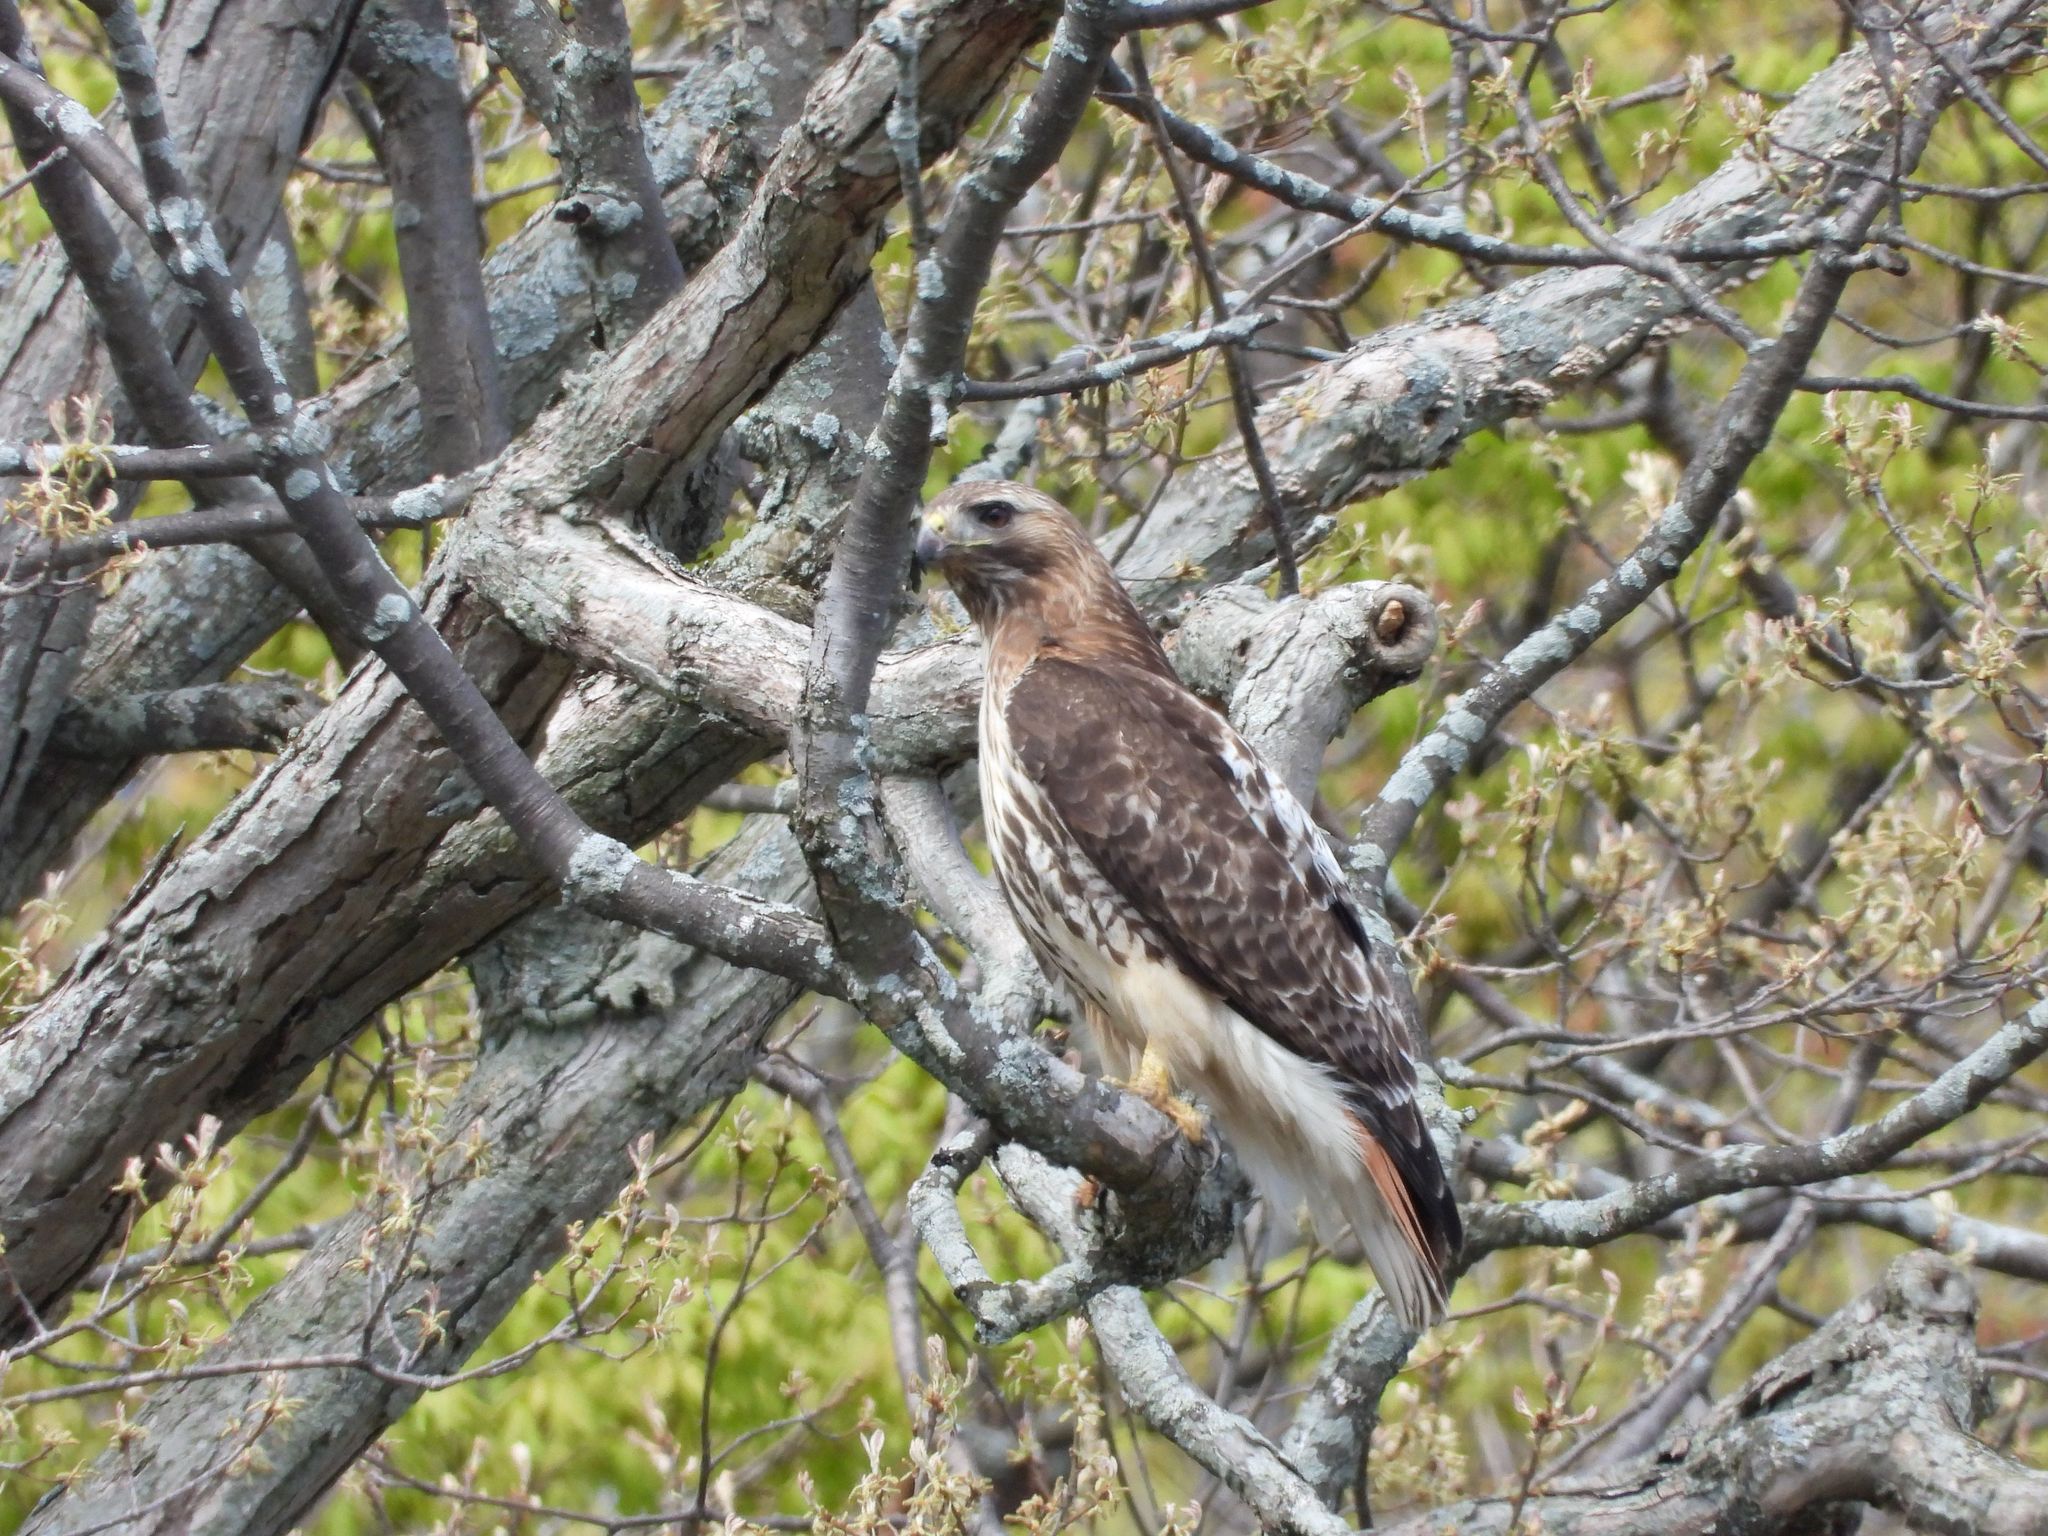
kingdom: Animalia
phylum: Chordata
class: Aves
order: Accipitriformes
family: Accipitridae
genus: Buteo
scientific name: Buteo jamaicensis
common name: Red-tailed hawk
